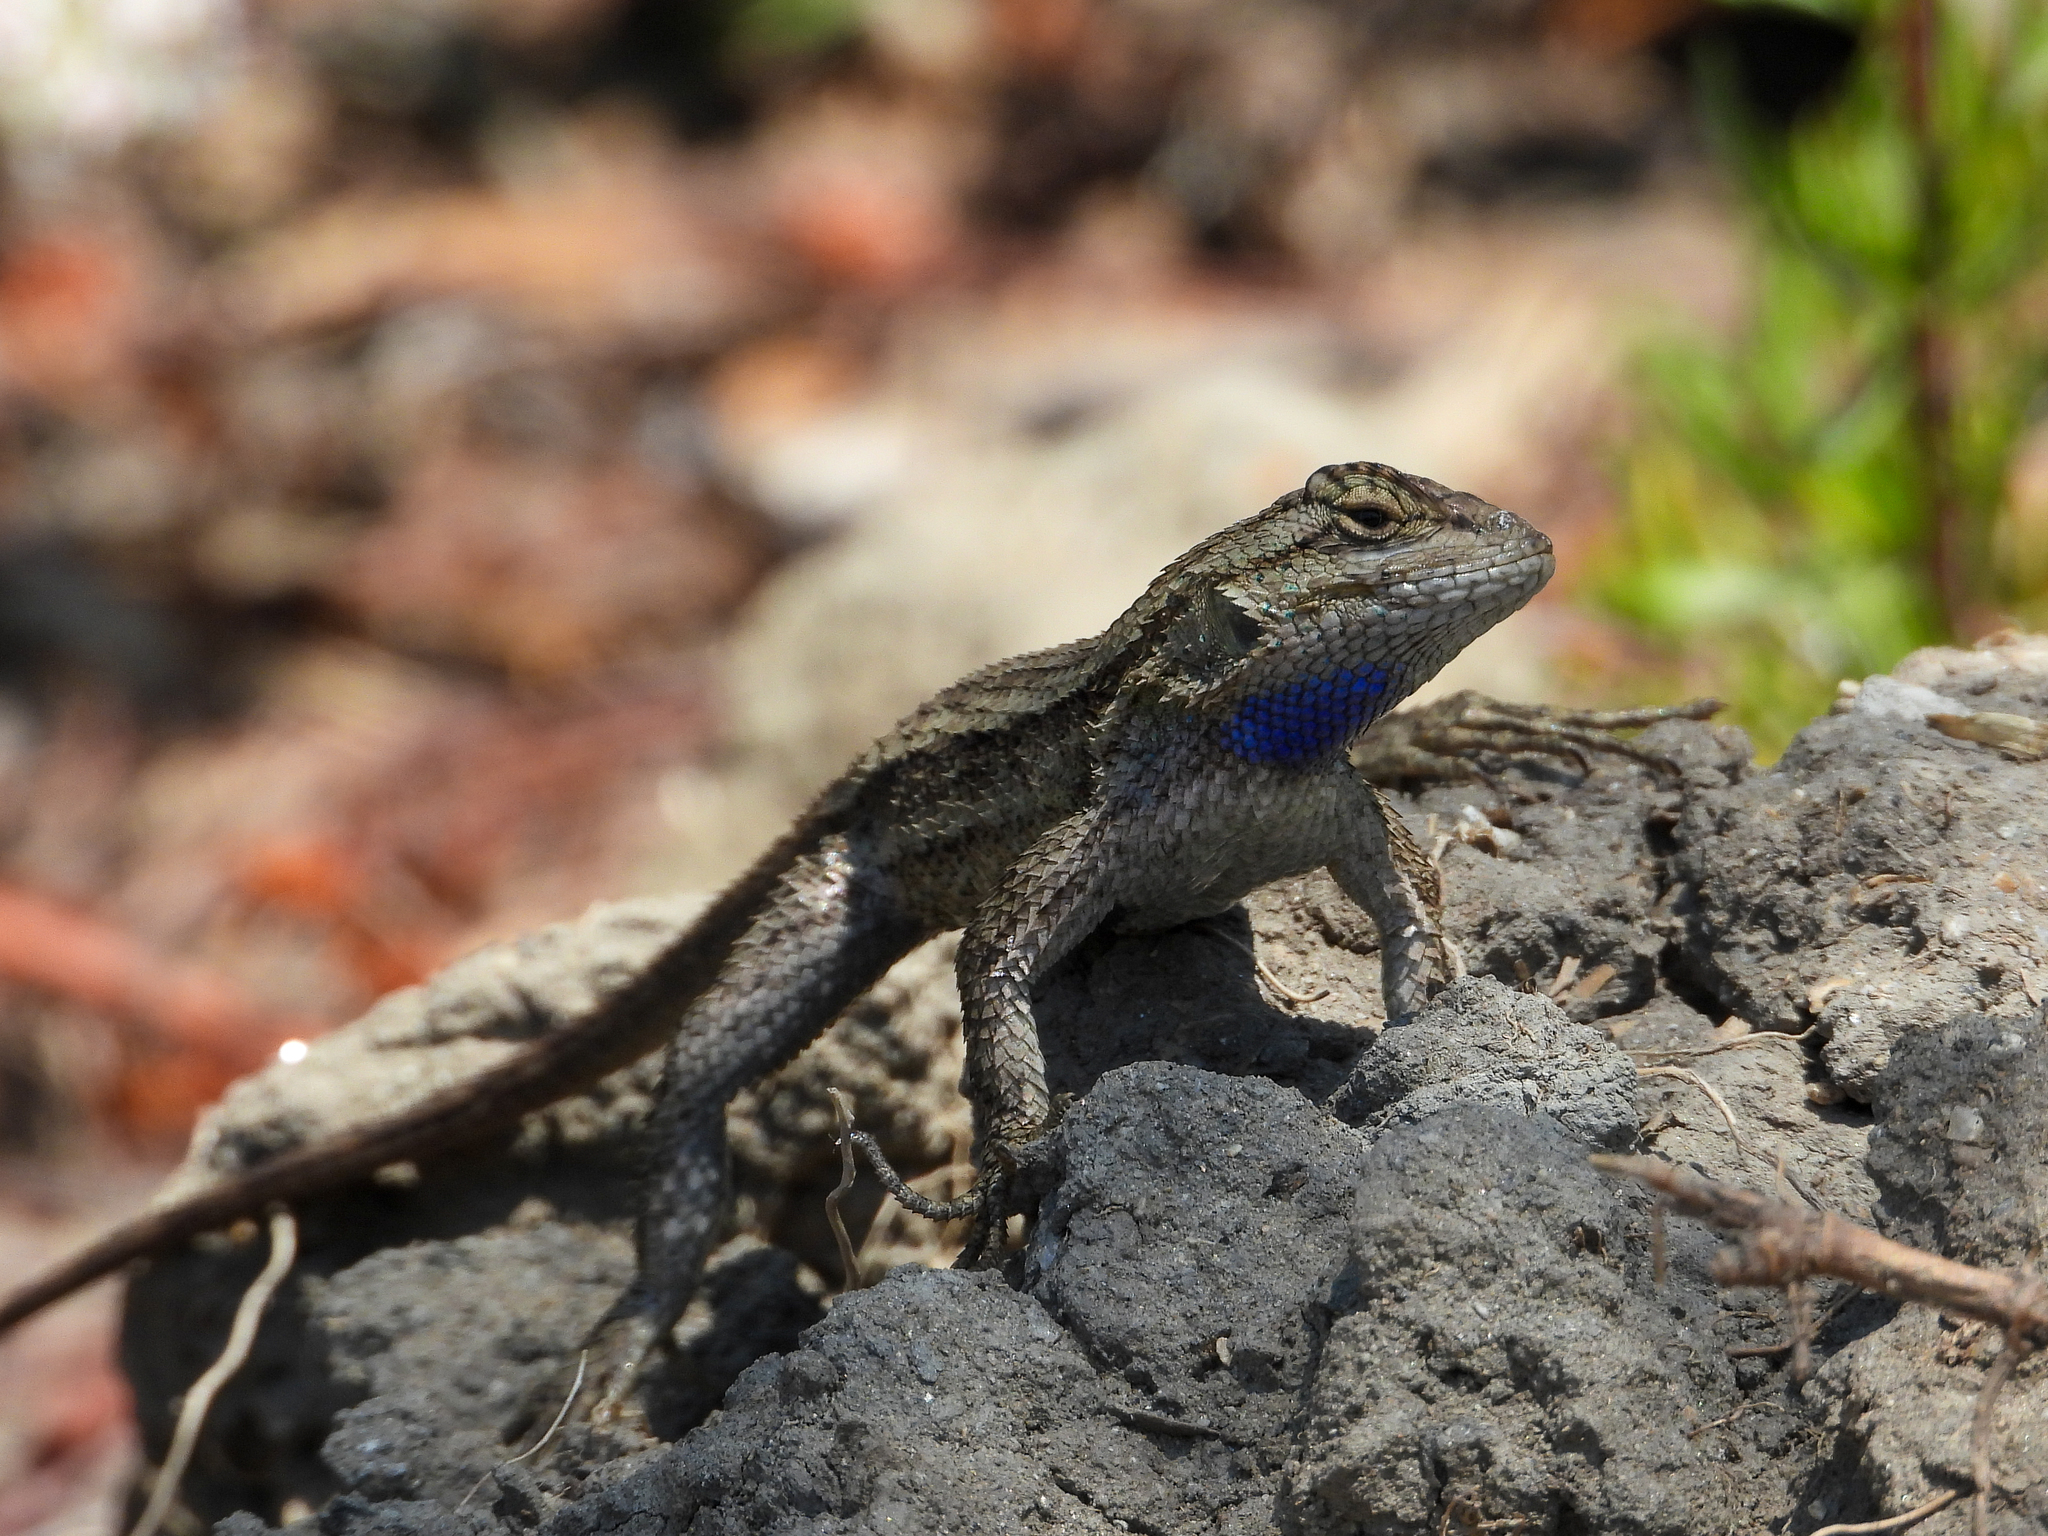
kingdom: Animalia
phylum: Chordata
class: Squamata
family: Phrynosomatidae
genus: Sceloporus
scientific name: Sceloporus occidentalis
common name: Western fence lizard
